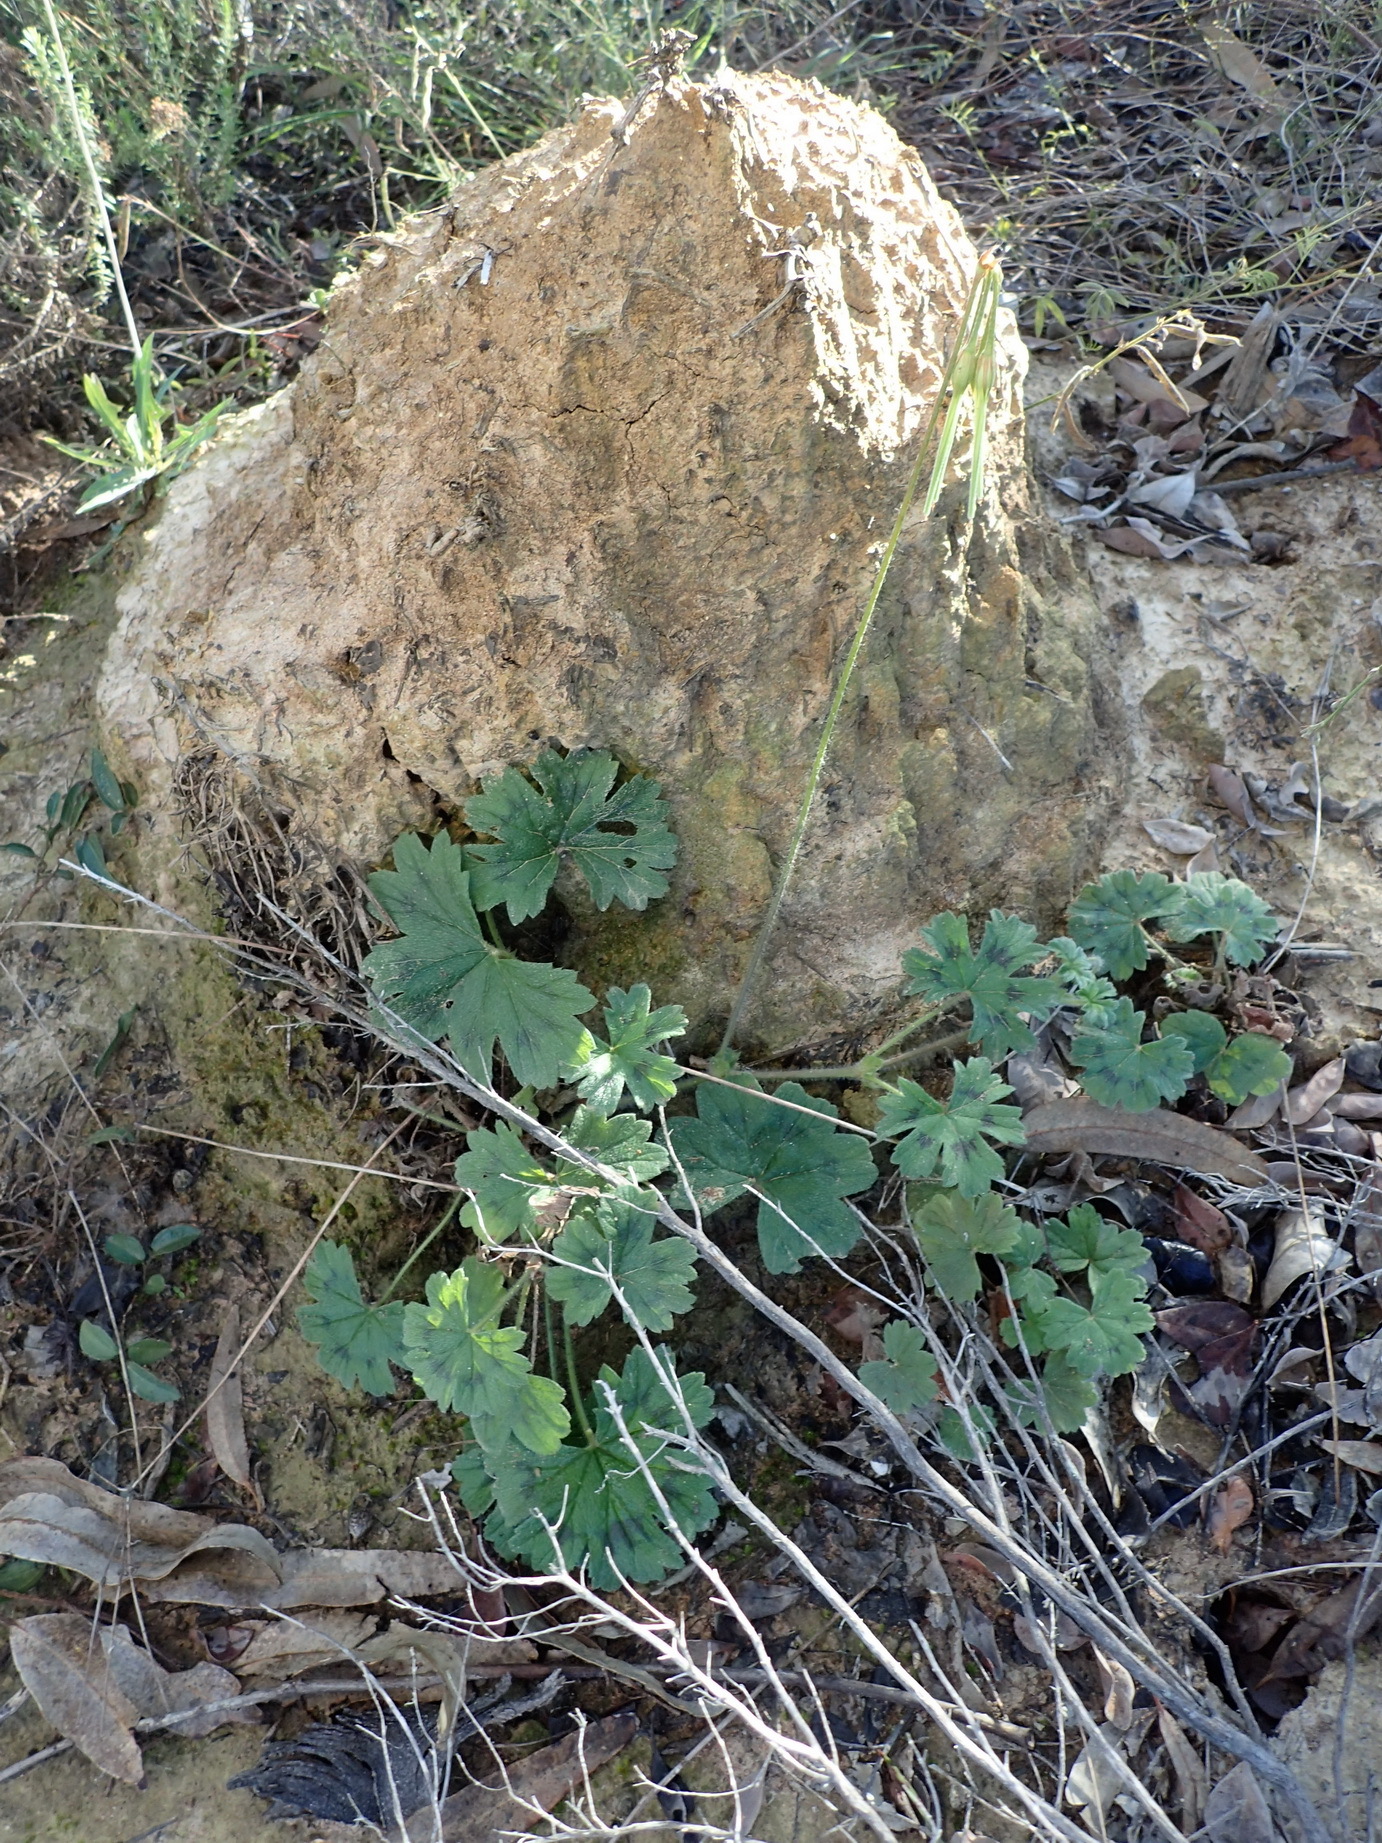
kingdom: Plantae
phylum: Tracheophyta
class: Magnoliopsida
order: Geraniales
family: Geraniaceae
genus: Pelargonium
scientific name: Pelargonium alchemilloides
